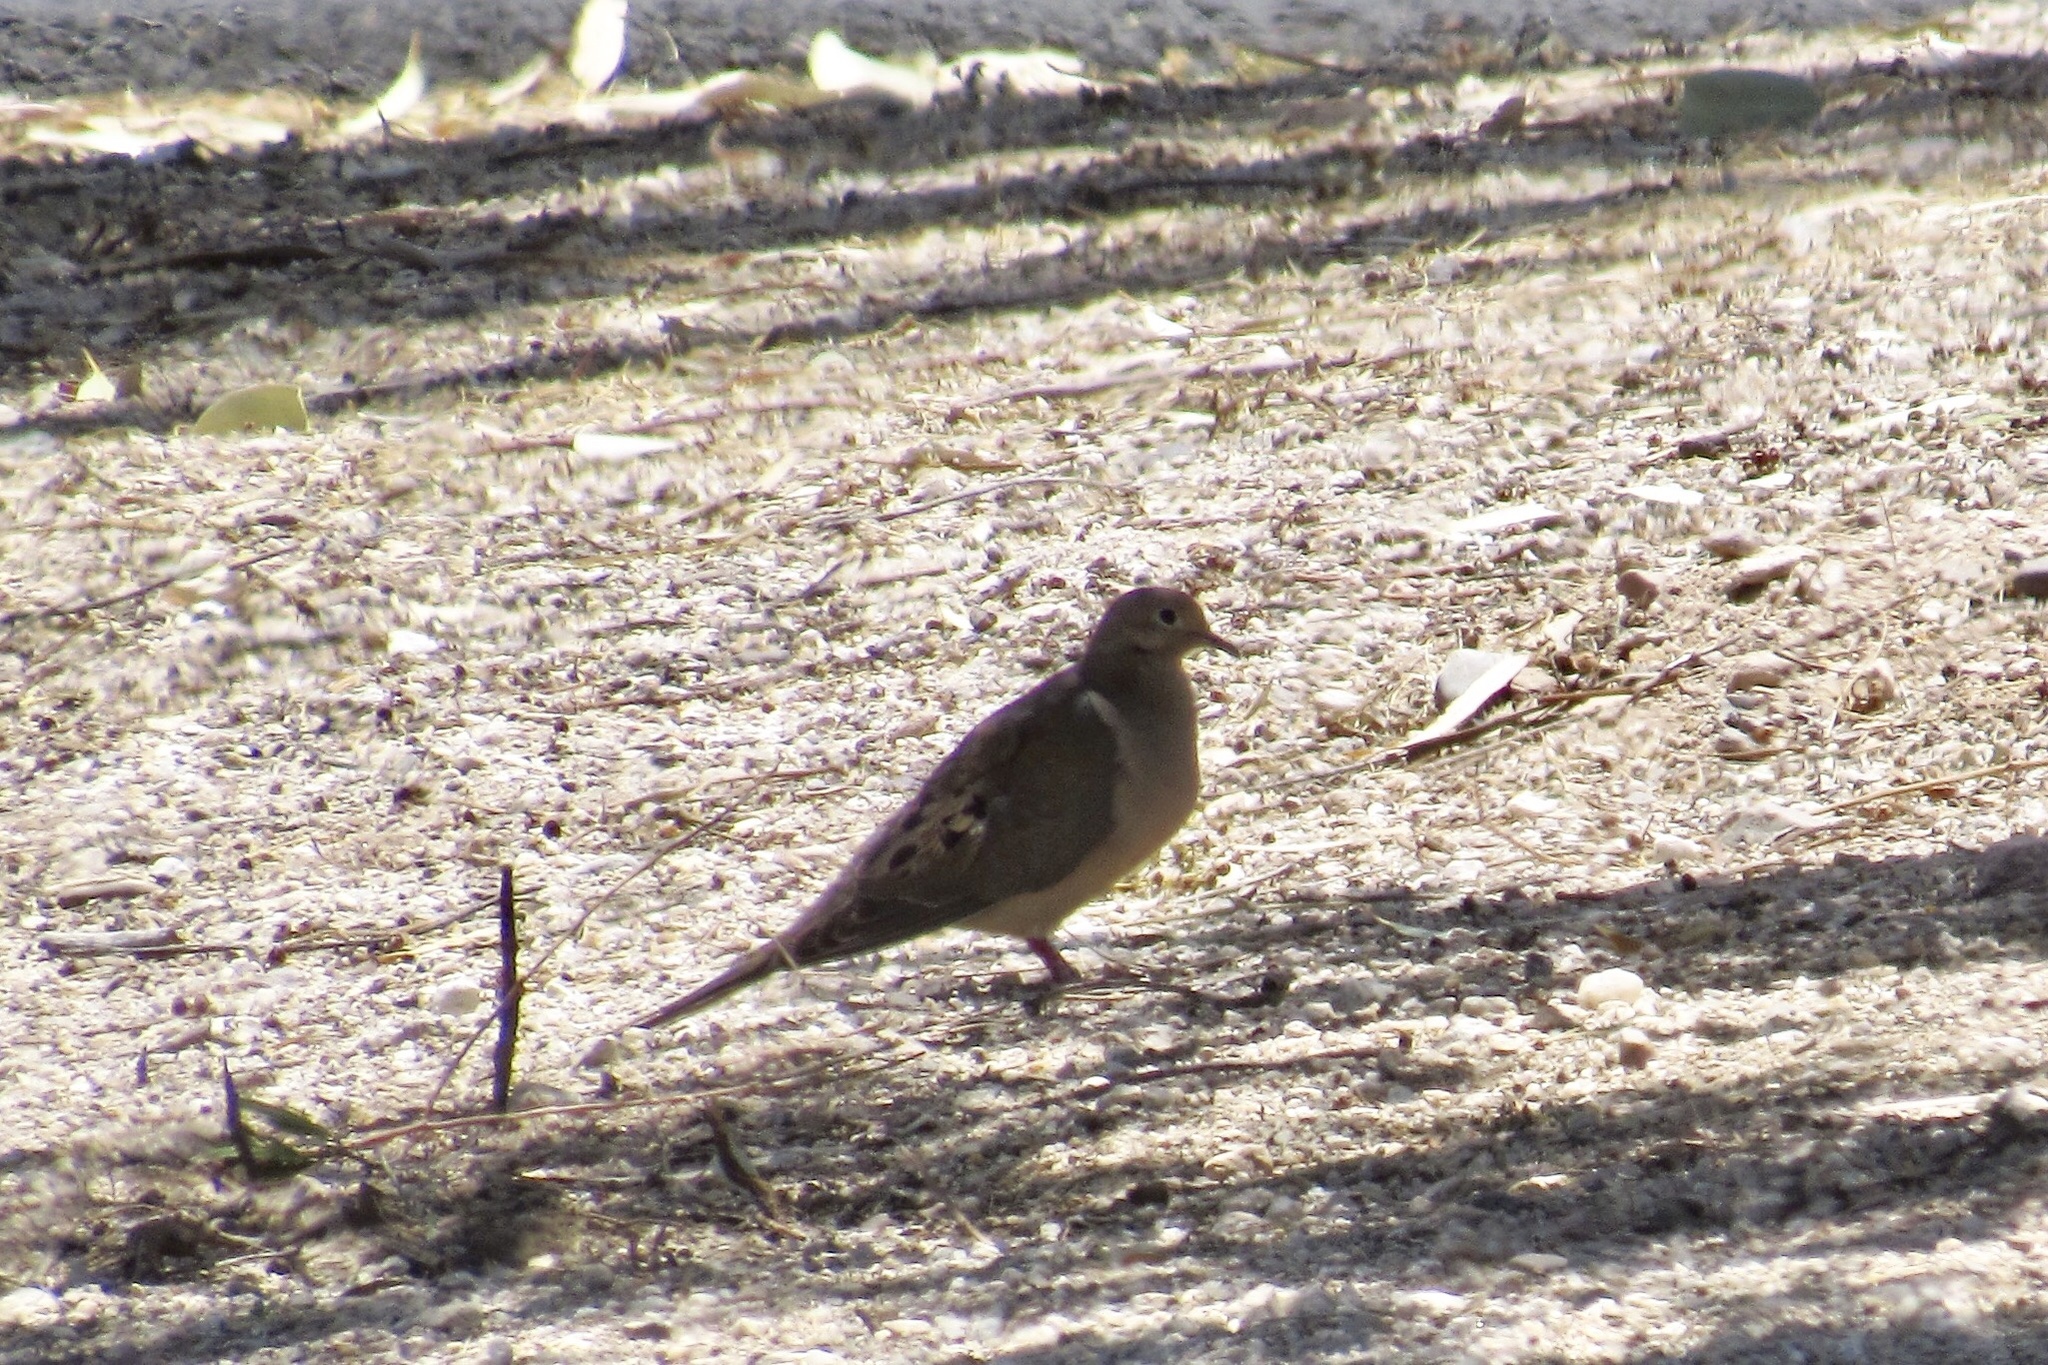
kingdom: Animalia
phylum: Chordata
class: Aves
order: Columbiformes
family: Columbidae
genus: Zenaida
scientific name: Zenaida macroura
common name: Mourning dove
